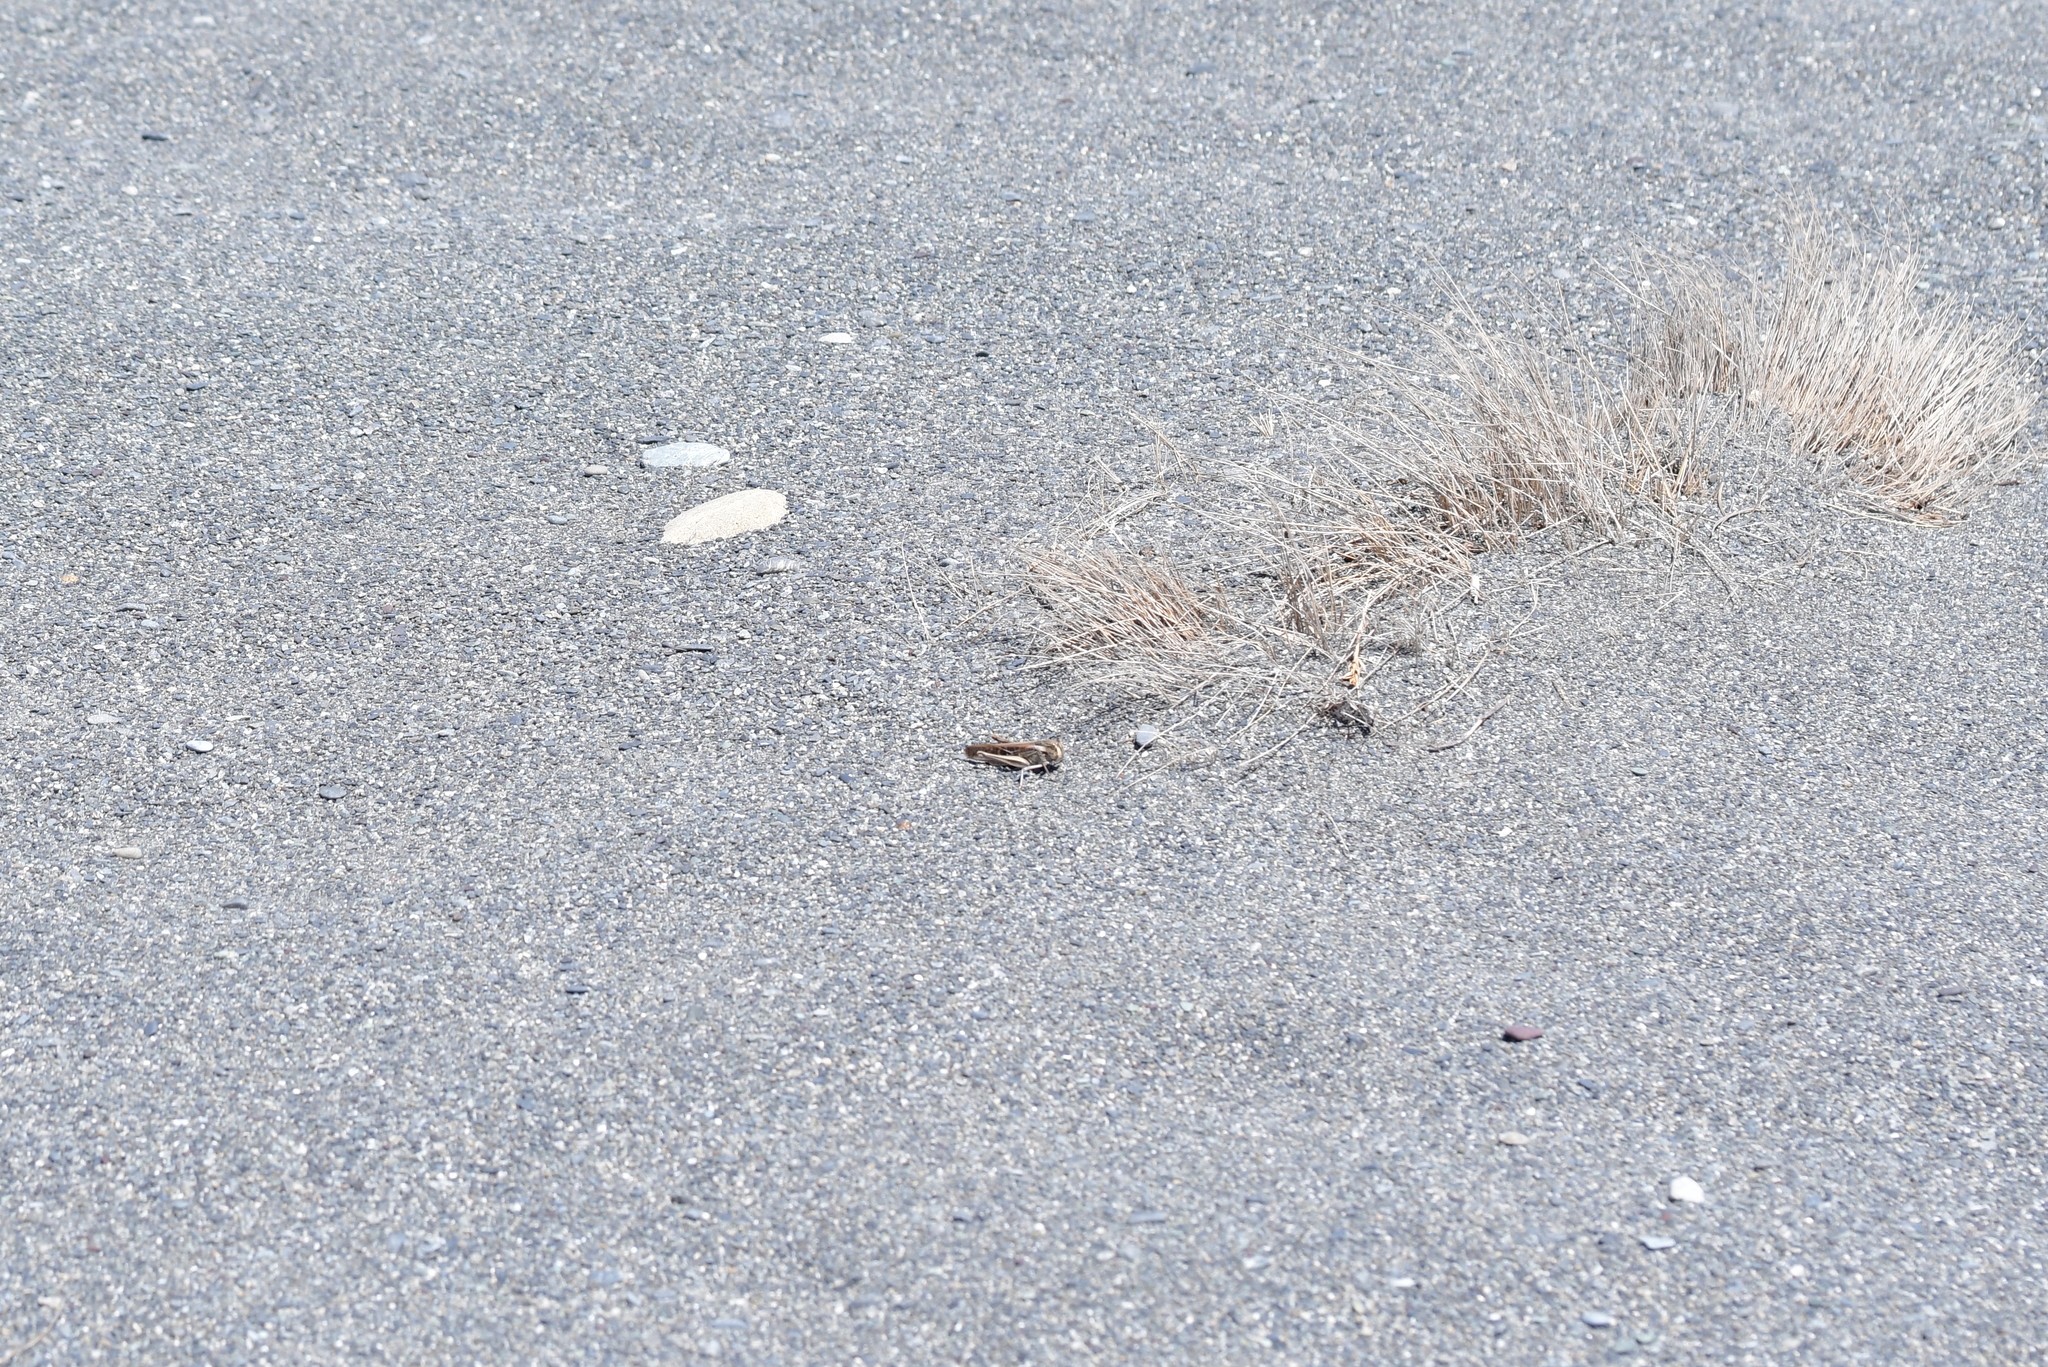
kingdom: Animalia
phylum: Arthropoda
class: Insecta
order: Orthoptera
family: Acrididae
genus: Locusta
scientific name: Locusta migratoria
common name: Migratory locust
